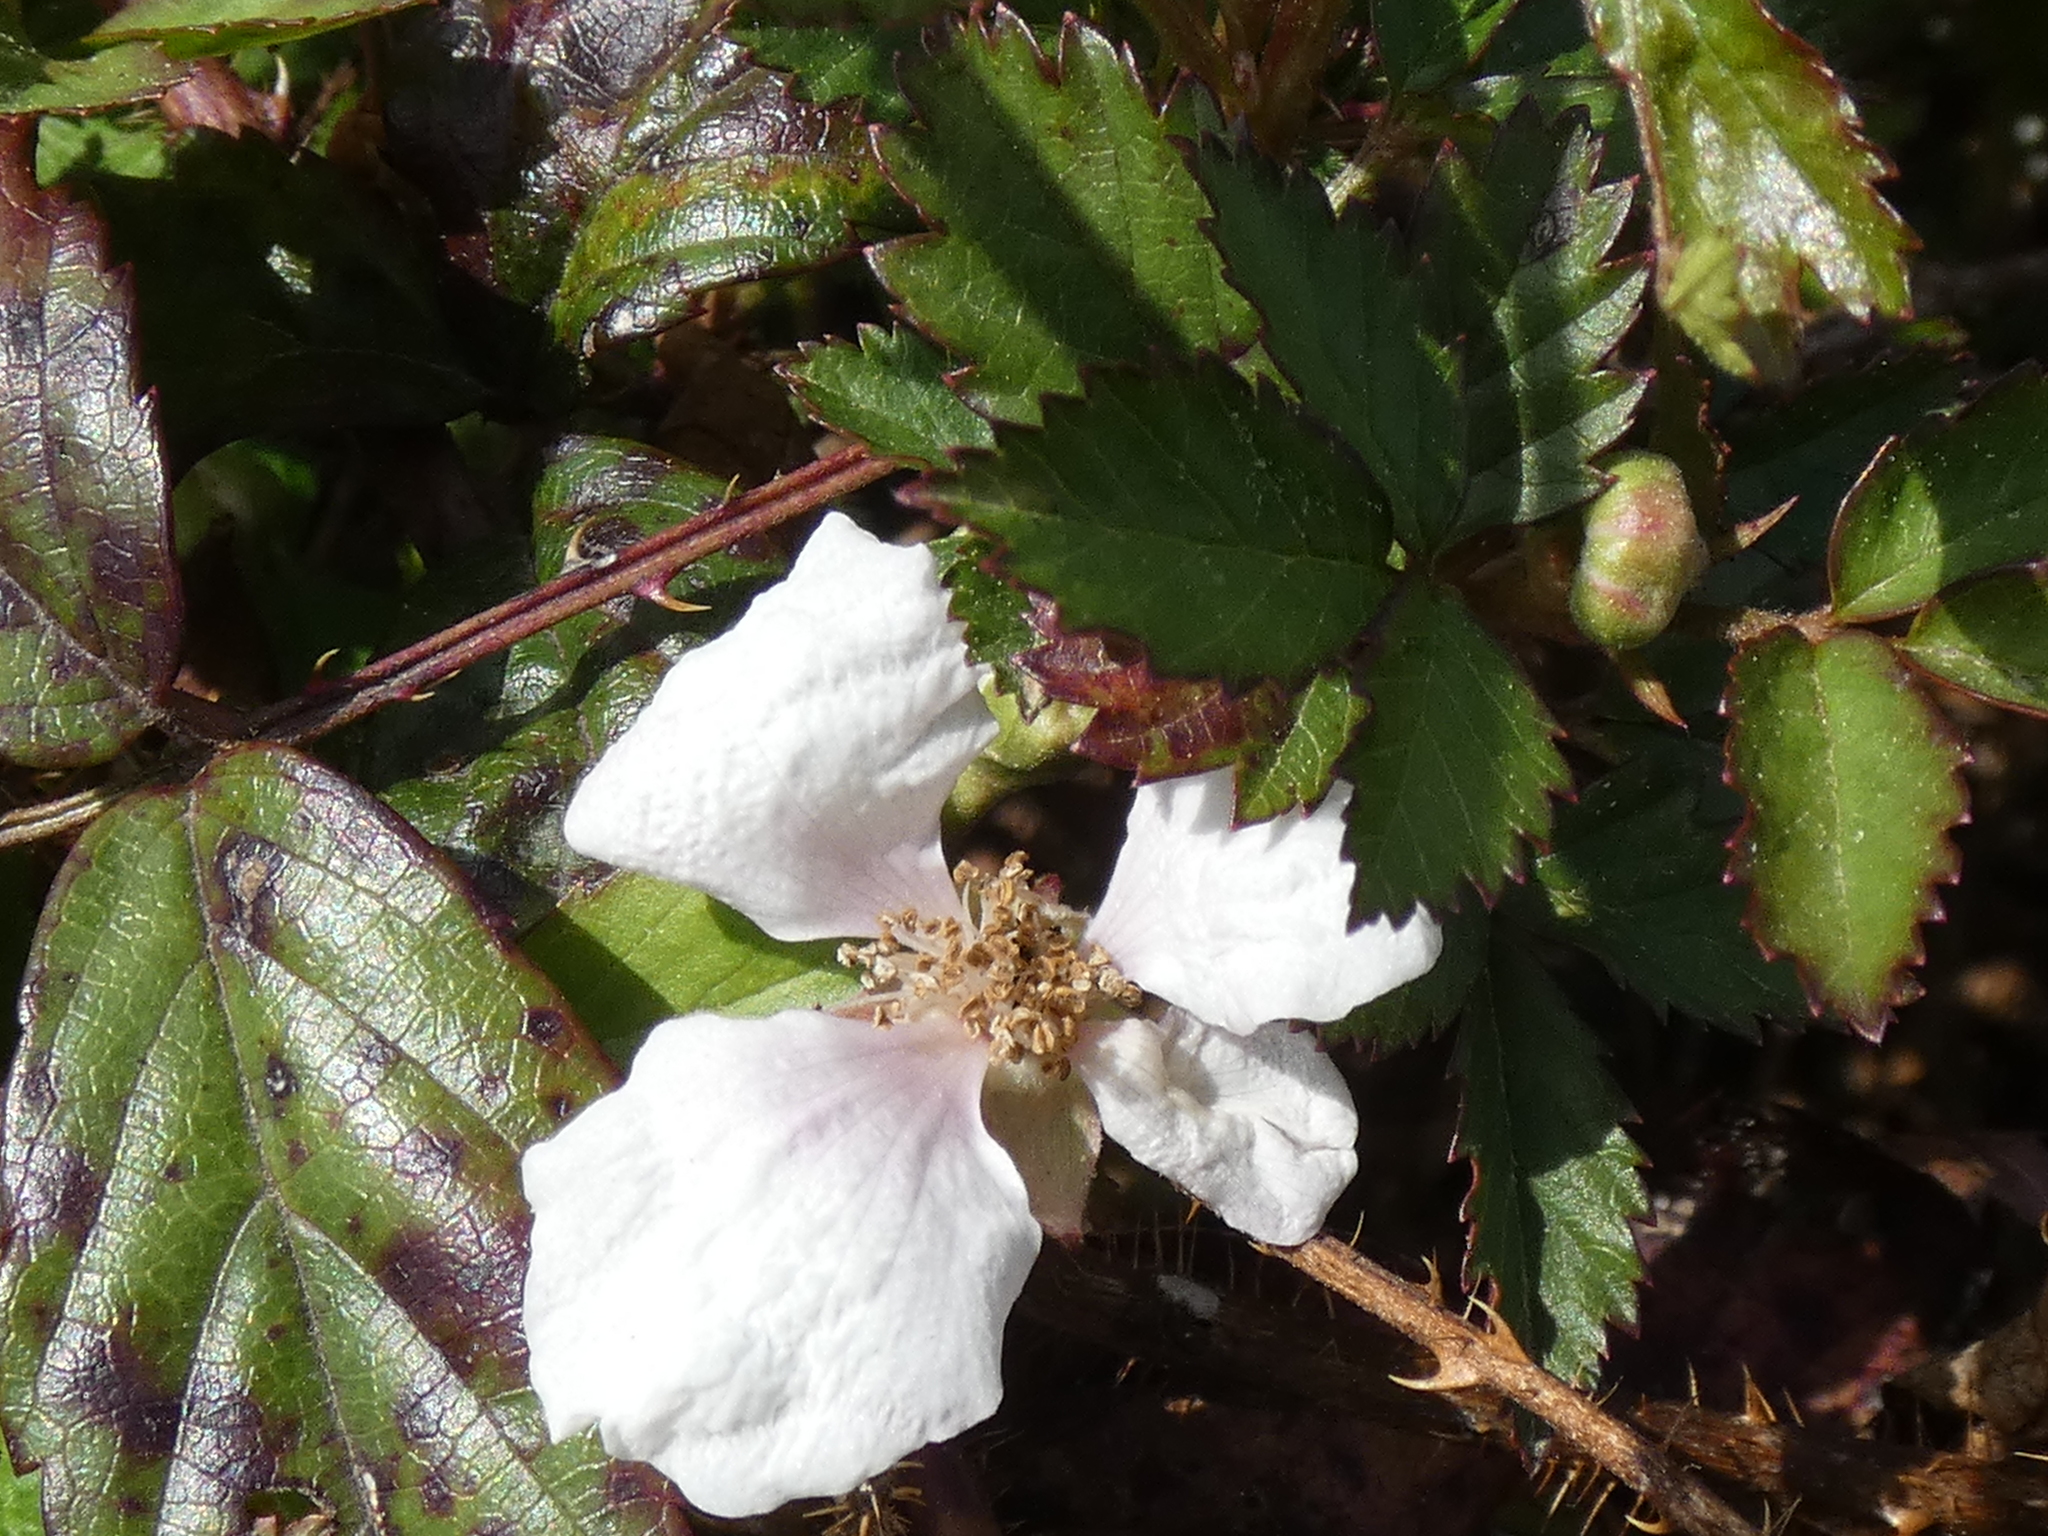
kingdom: Plantae
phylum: Tracheophyta
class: Magnoliopsida
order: Rosales
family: Rosaceae
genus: Rubus
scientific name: Rubus trivialis
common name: Southern dewberry
